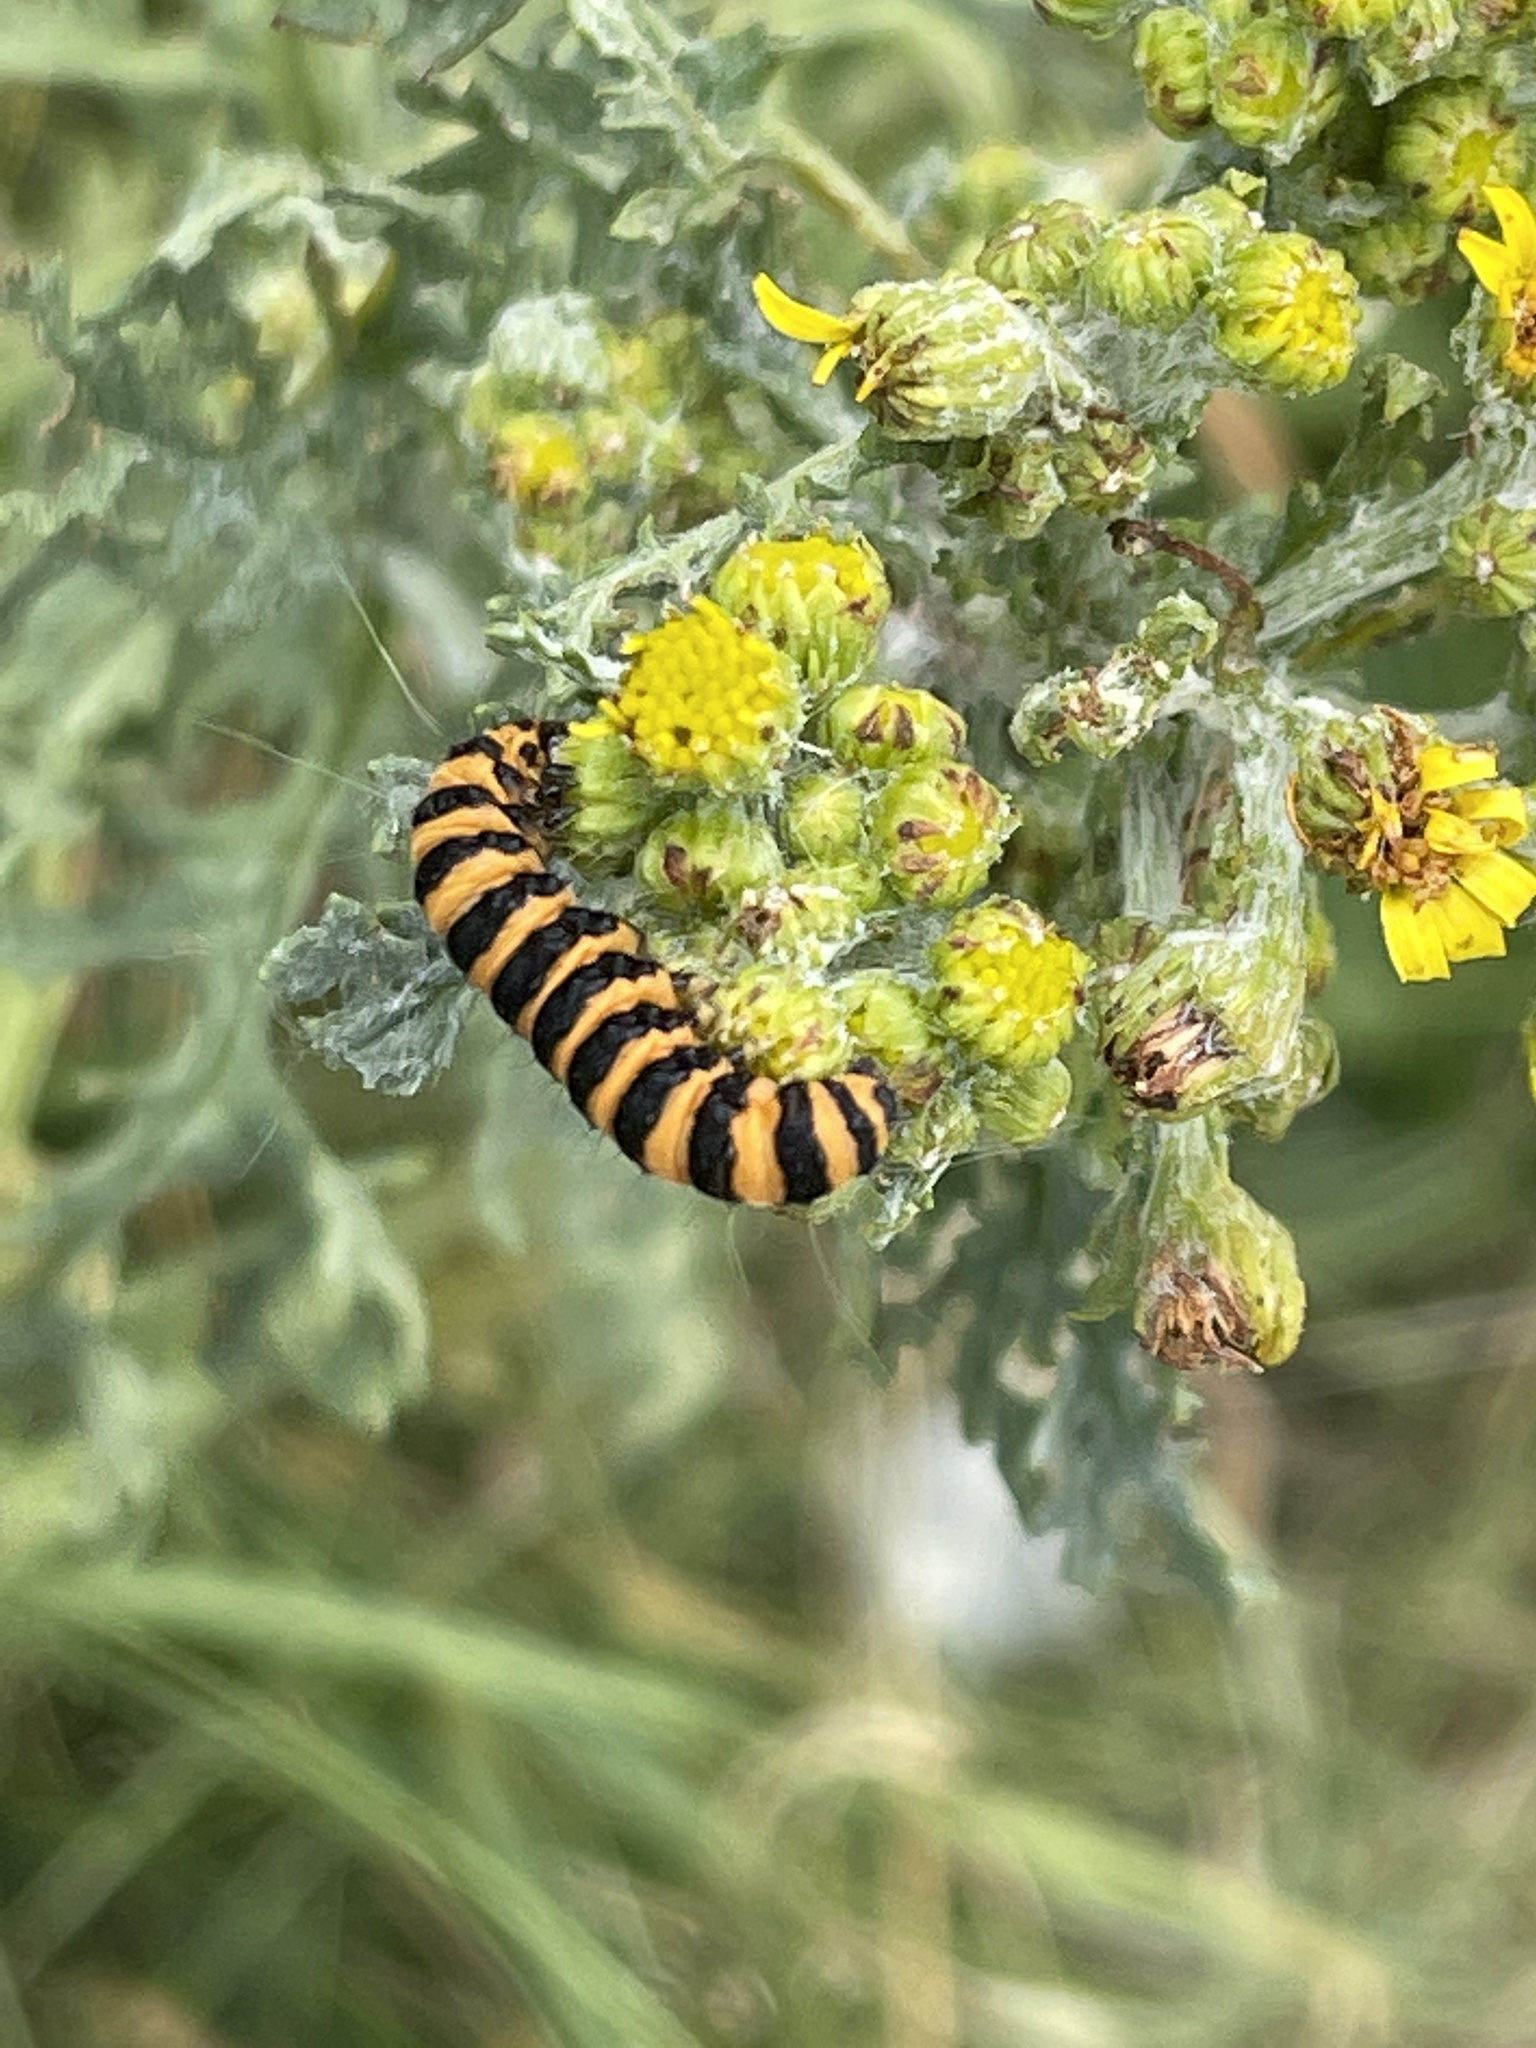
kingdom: Animalia
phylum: Arthropoda
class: Insecta
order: Lepidoptera
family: Erebidae
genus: Tyria
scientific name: Tyria jacobaeae
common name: Cinnabar
